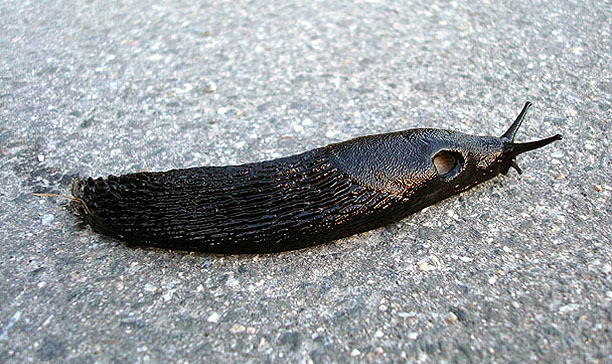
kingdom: Animalia
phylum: Mollusca
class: Gastropoda
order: Stylommatophora
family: Arionidae
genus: Arion
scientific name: Arion ater
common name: Black arion
